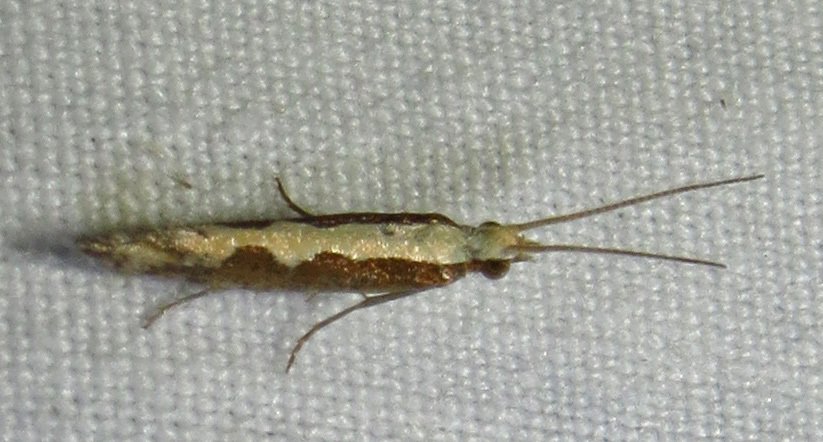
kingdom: Animalia
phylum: Arthropoda
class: Insecta
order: Lepidoptera
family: Plutellidae
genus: Plutella
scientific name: Plutella xylostella
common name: Diamond-back moth
